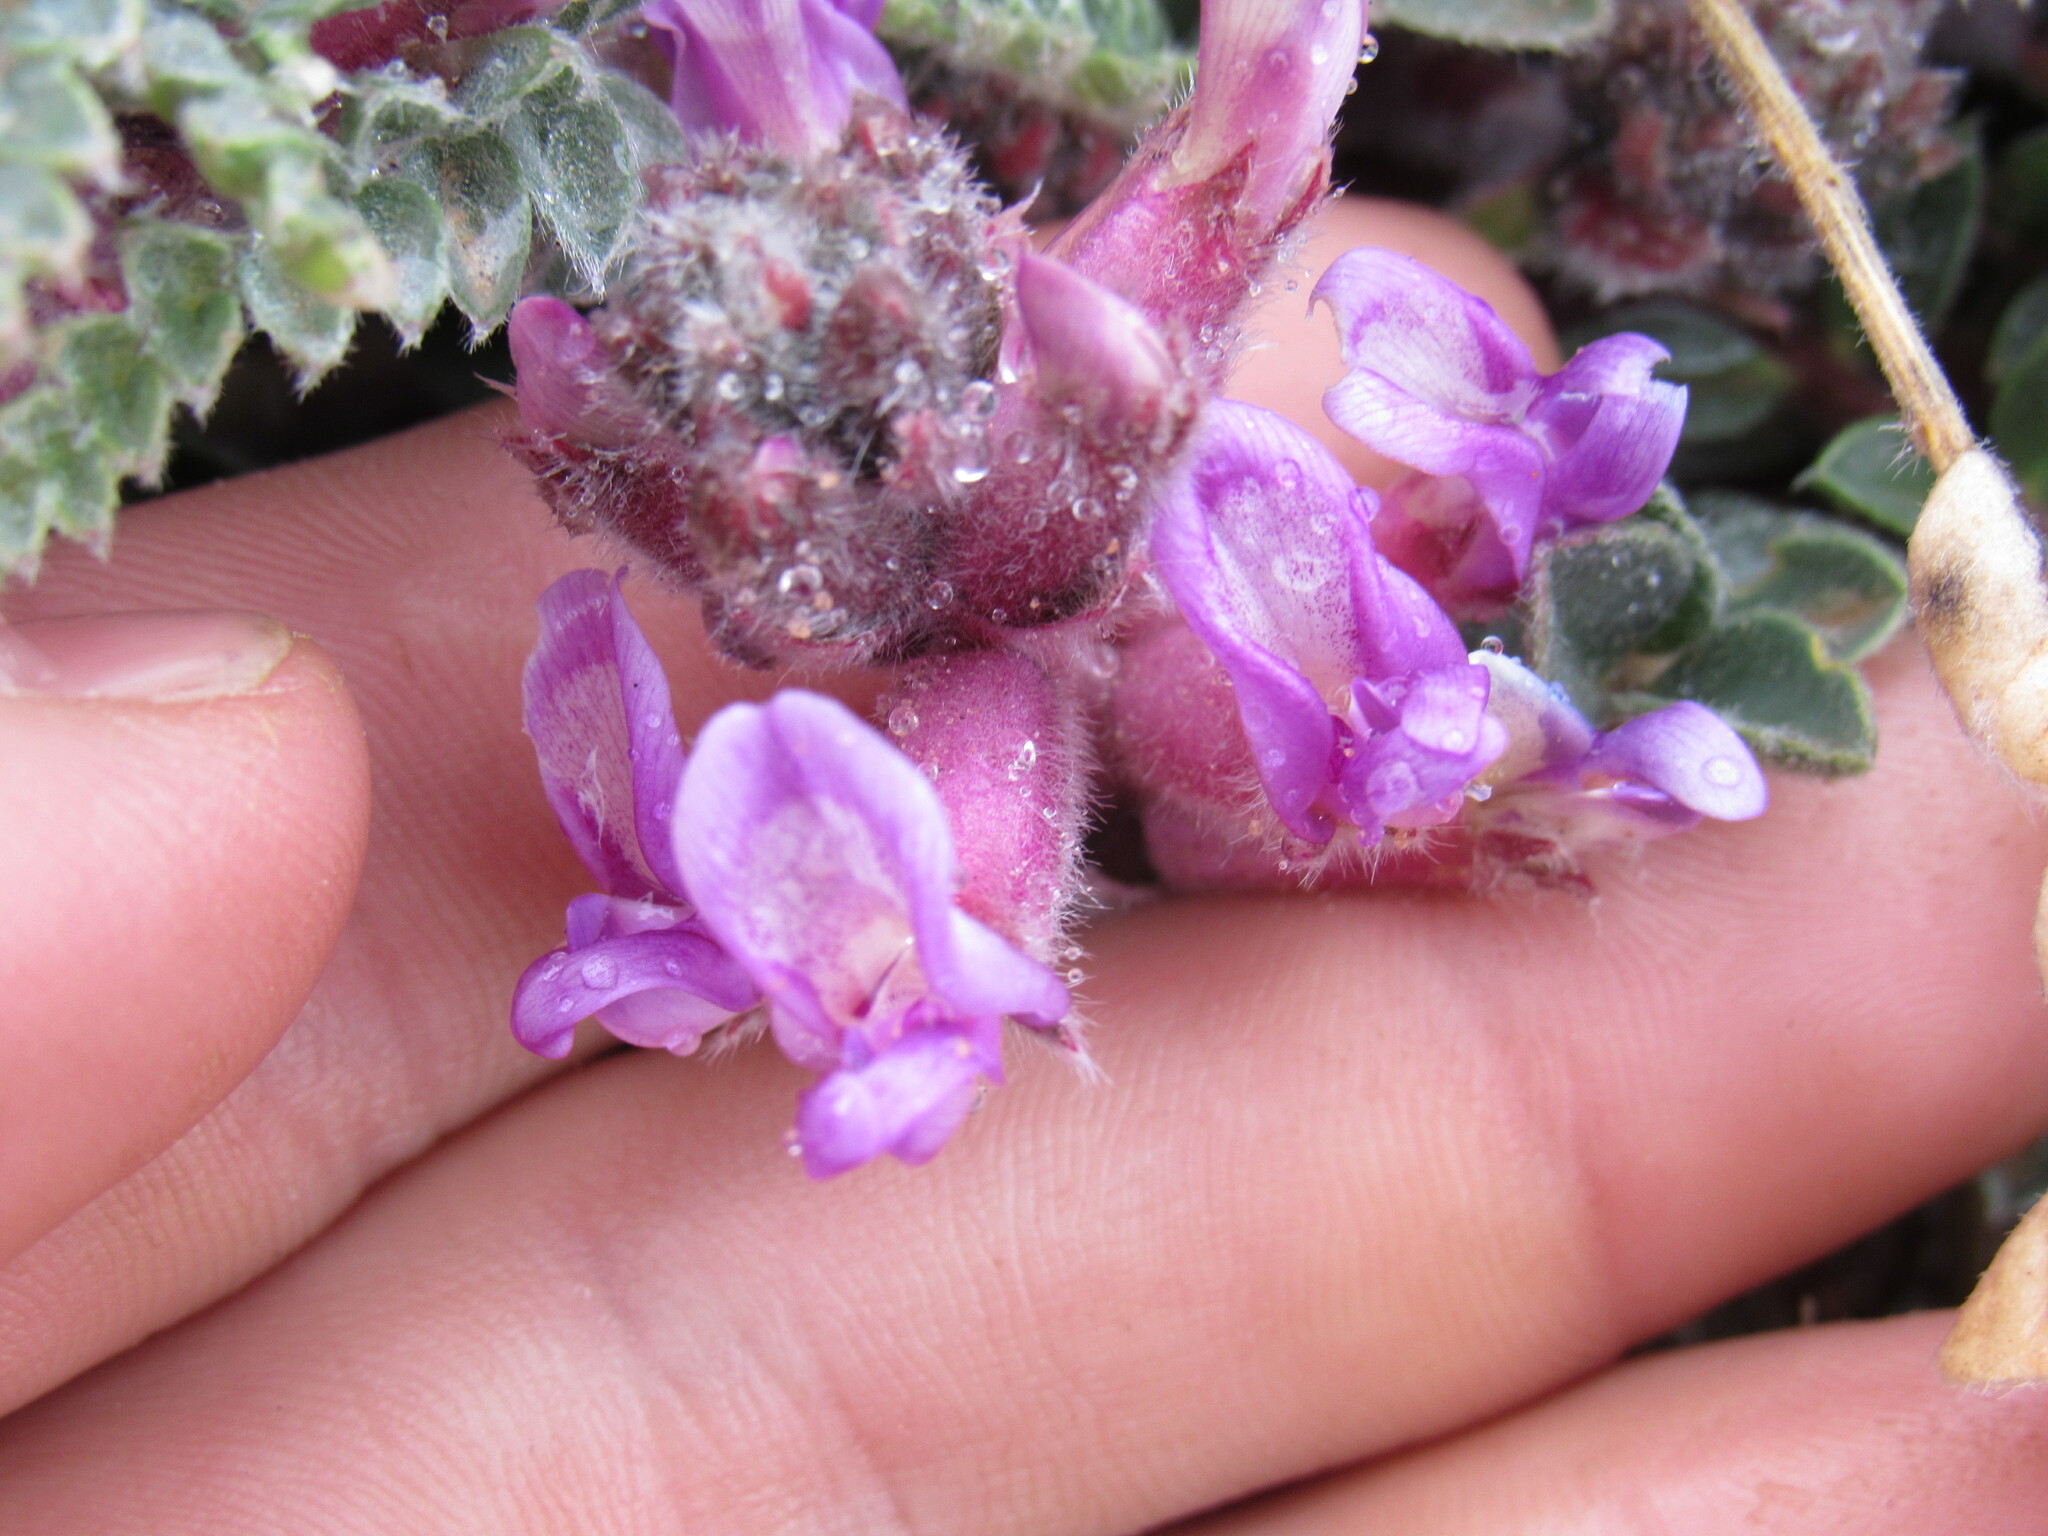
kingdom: Plantae
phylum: Tracheophyta
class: Magnoliopsida
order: Fabales
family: Fabaceae
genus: Astragalus
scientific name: Astragalus mollissimus
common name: Woolly locoweed
